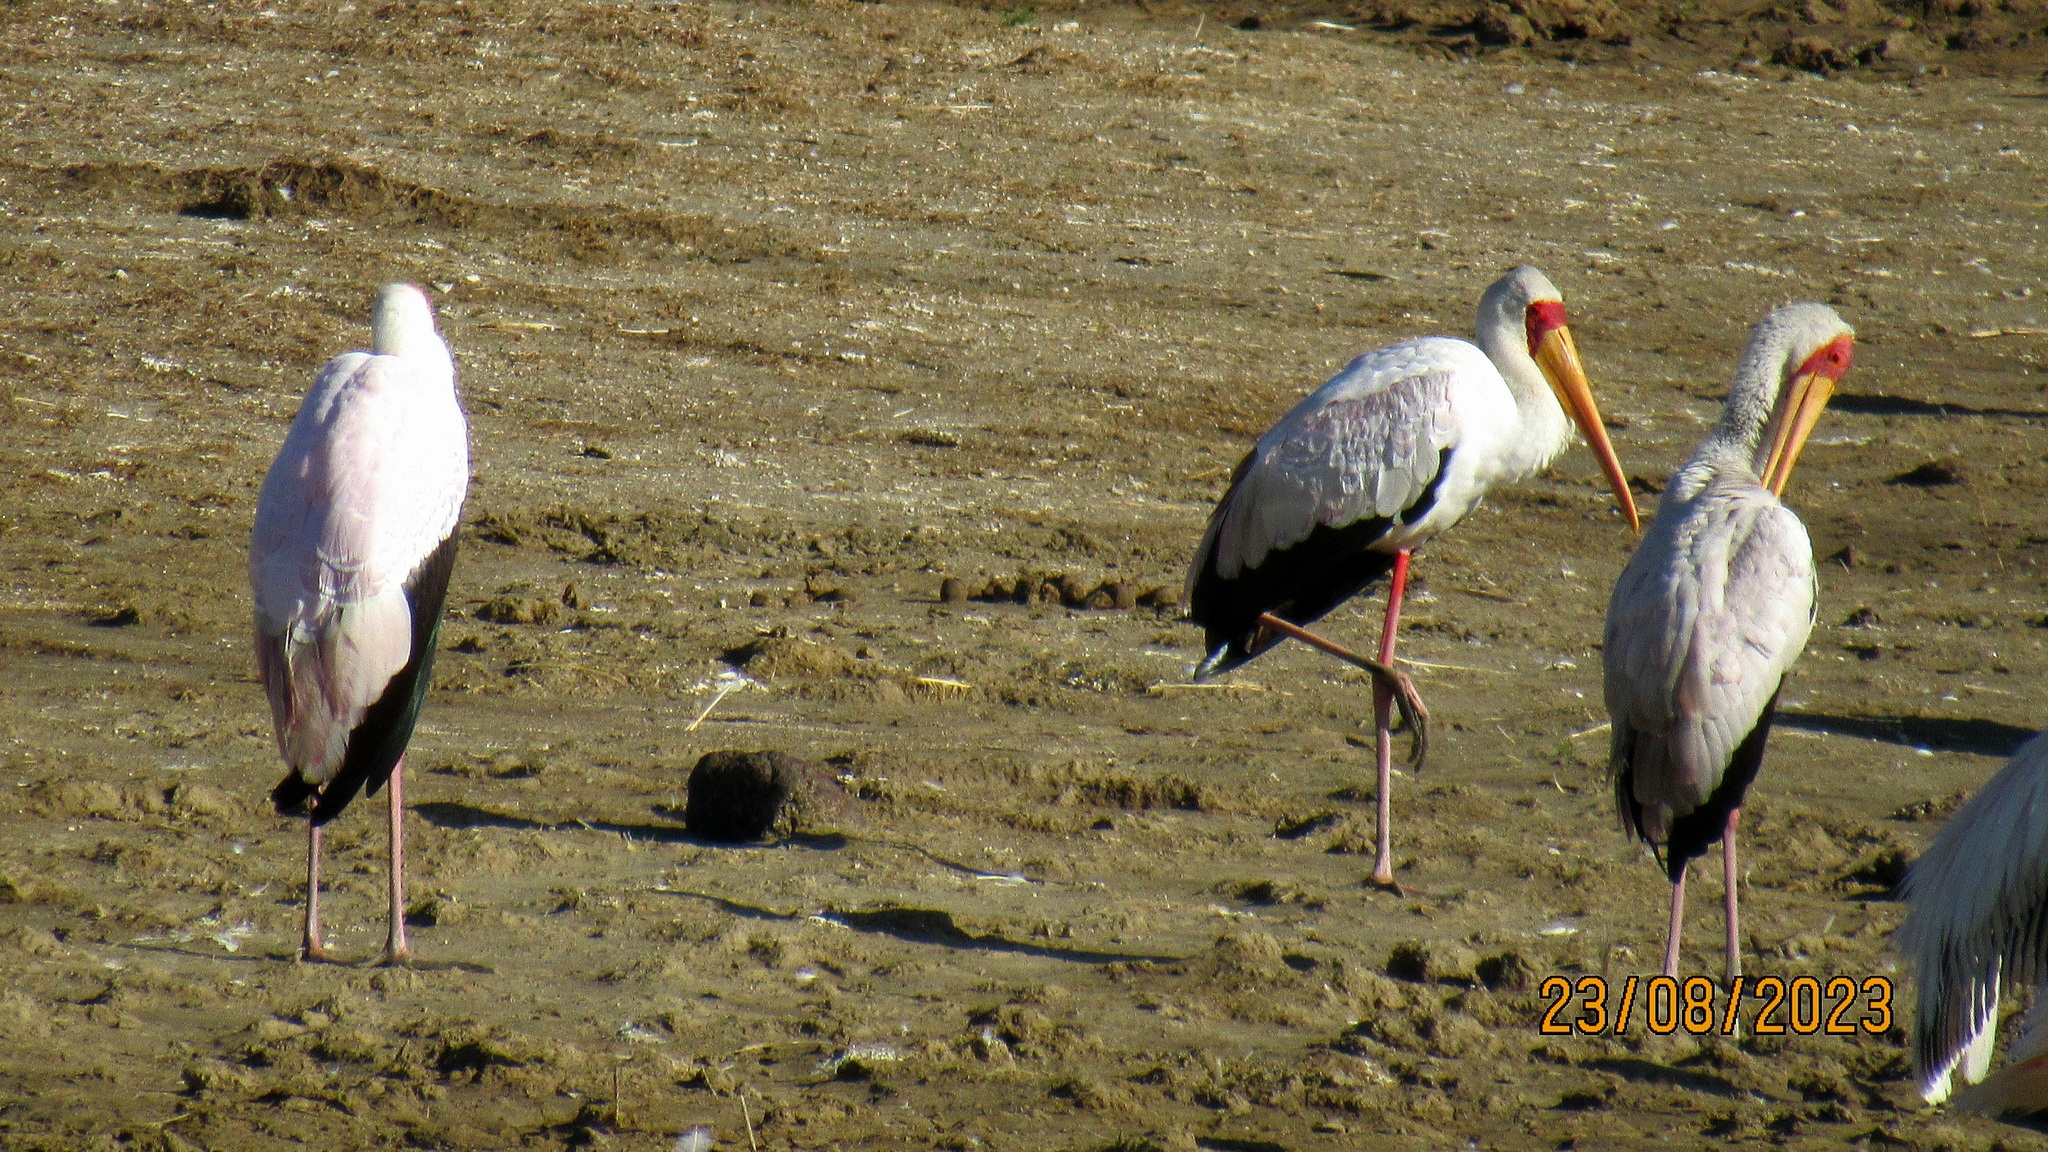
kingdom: Animalia
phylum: Chordata
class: Aves
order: Ciconiiformes
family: Ciconiidae
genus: Mycteria
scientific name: Mycteria ibis
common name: Yellow-billed stork
